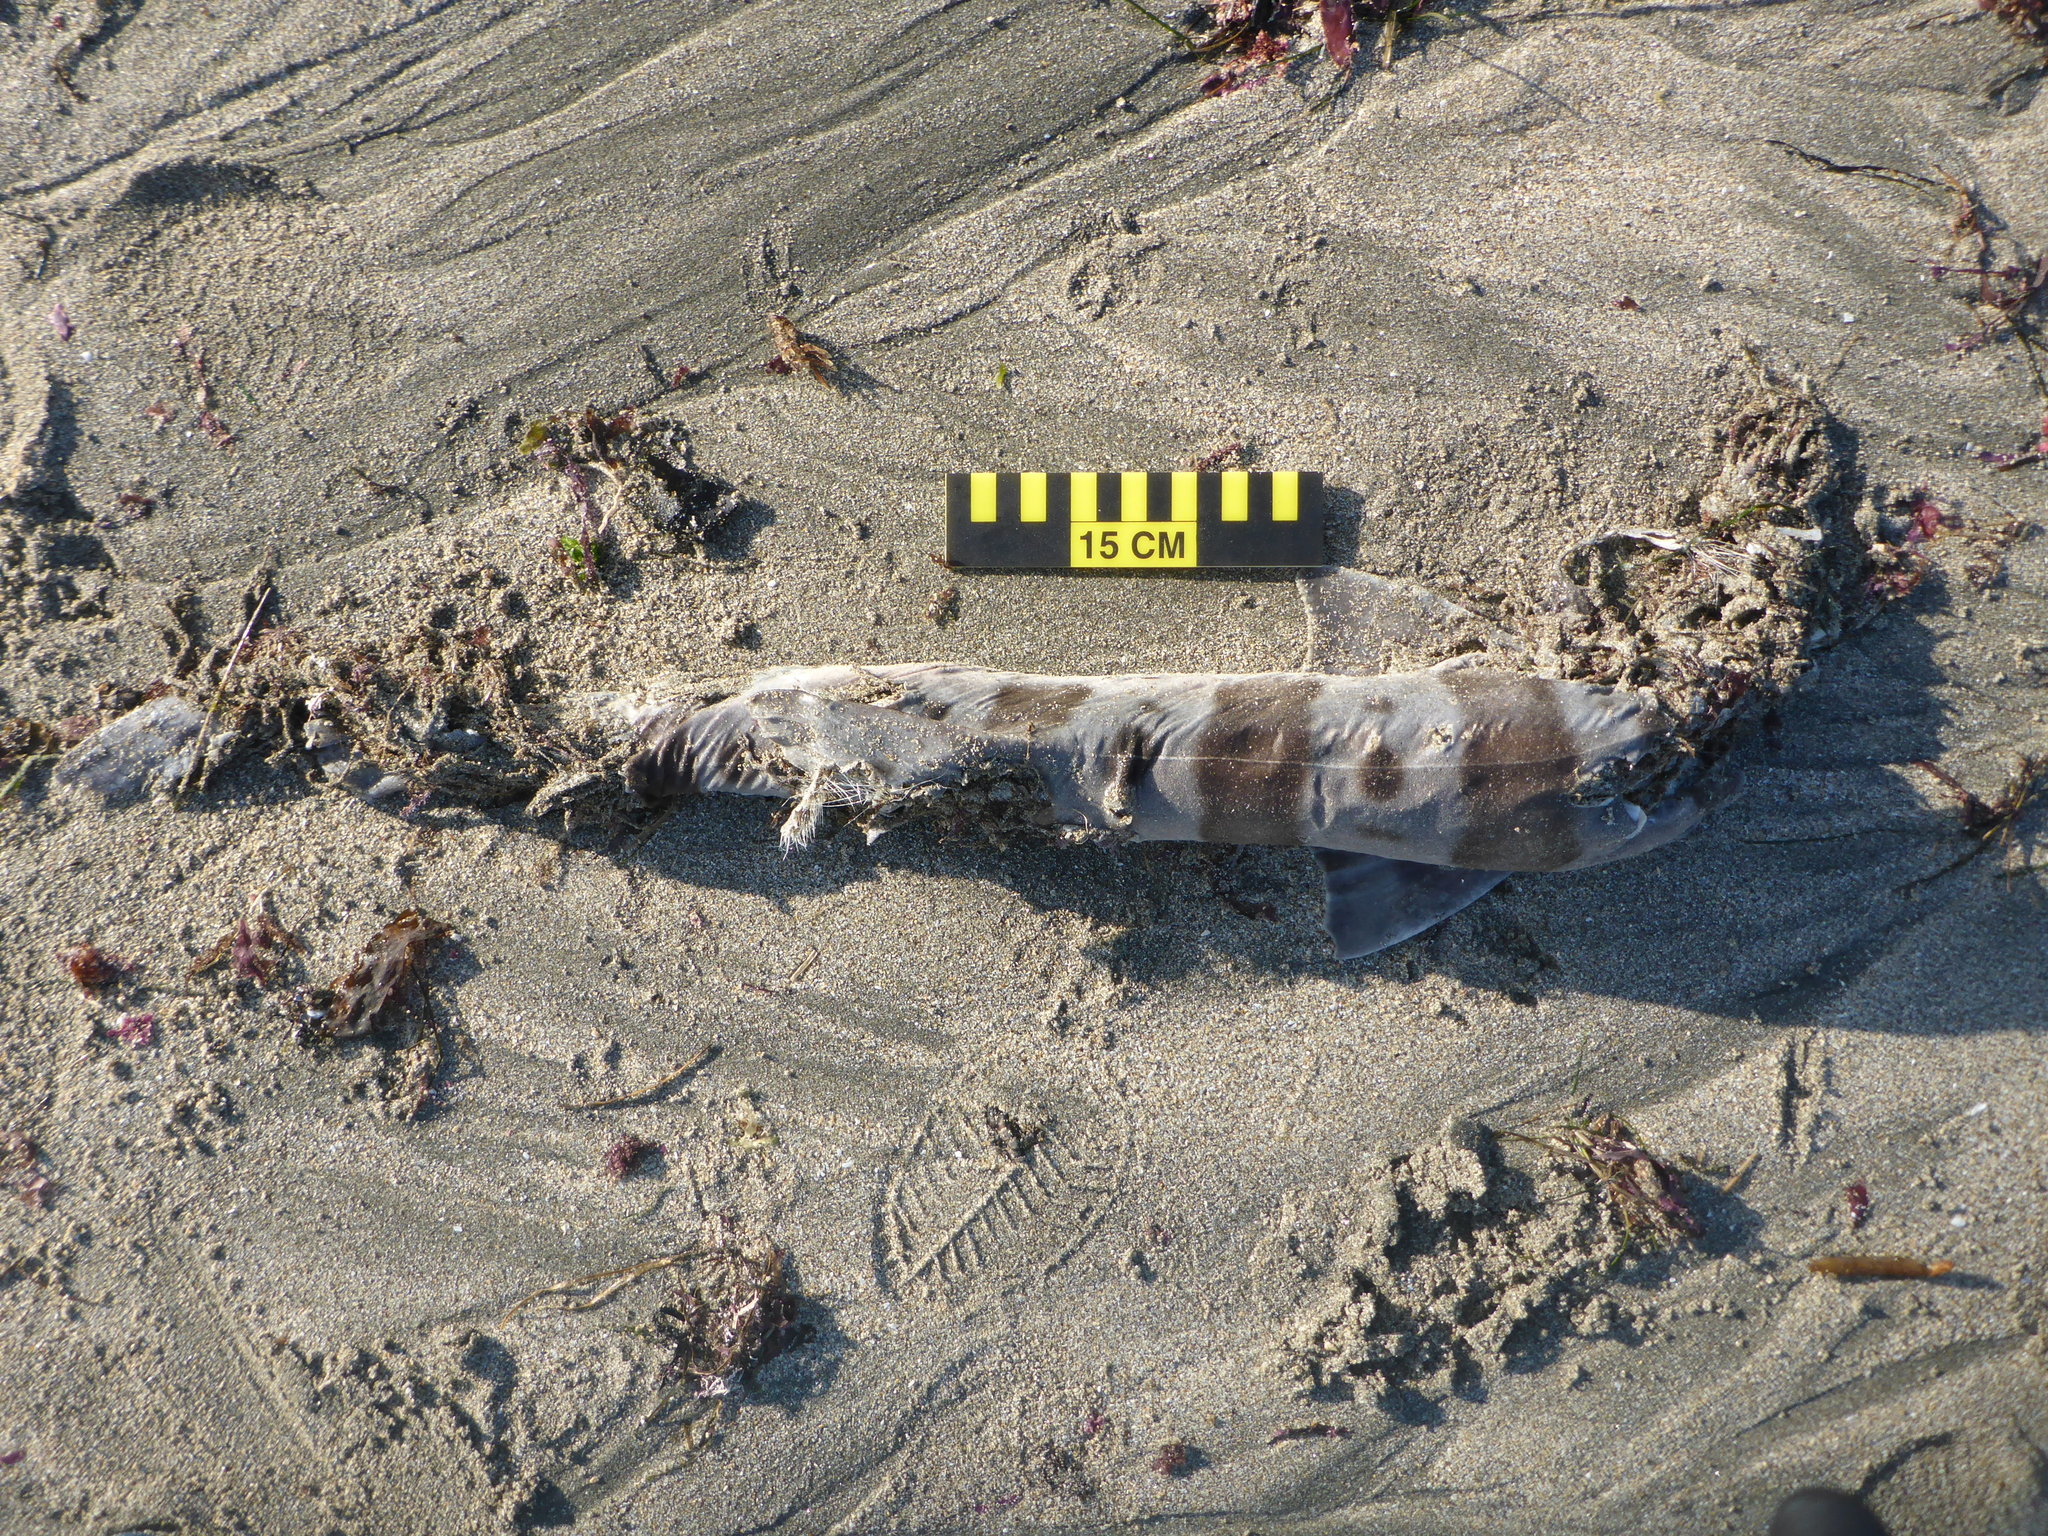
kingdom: Animalia
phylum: Chordata
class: Elasmobranchii
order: Carcharhiniformes
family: Triakidae
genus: Triakis
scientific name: Triakis semifasciata
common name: Leopard shark
